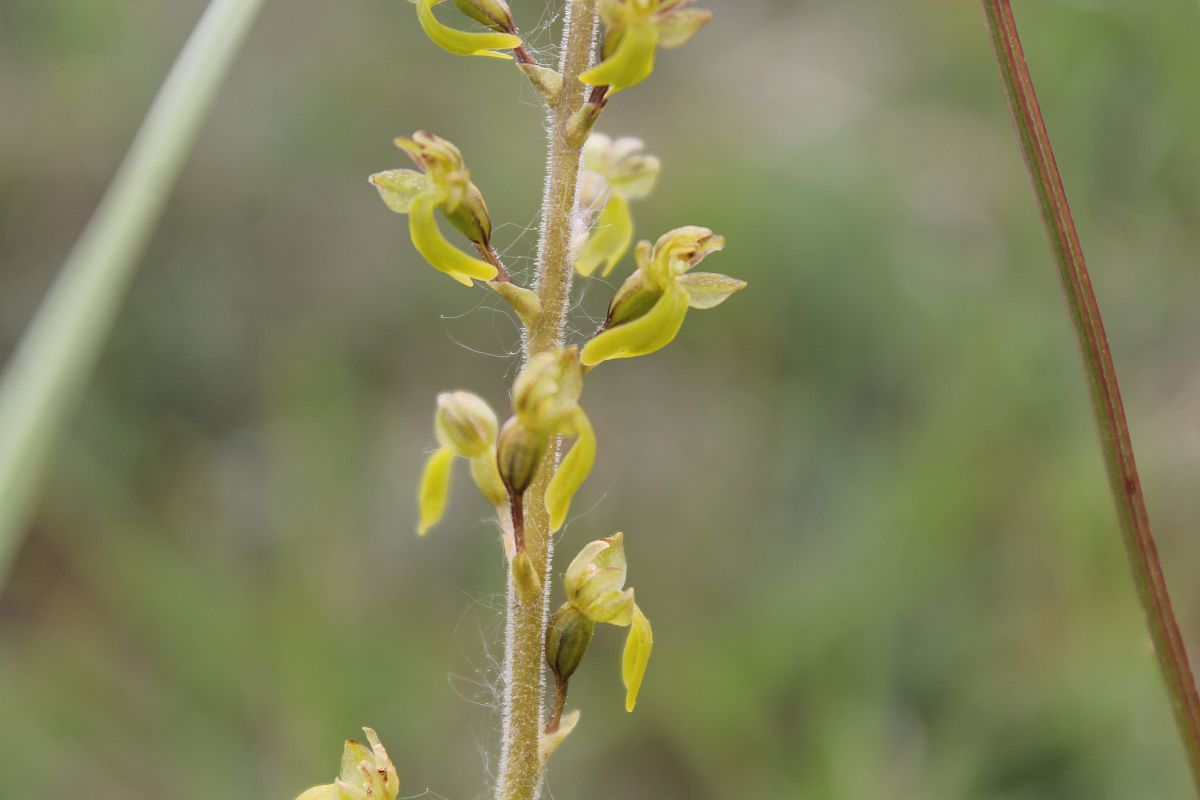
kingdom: Plantae
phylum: Tracheophyta
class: Liliopsida
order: Asparagales
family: Orchidaceae
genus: Neottia
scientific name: Neottia ovata
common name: Common twayblade
